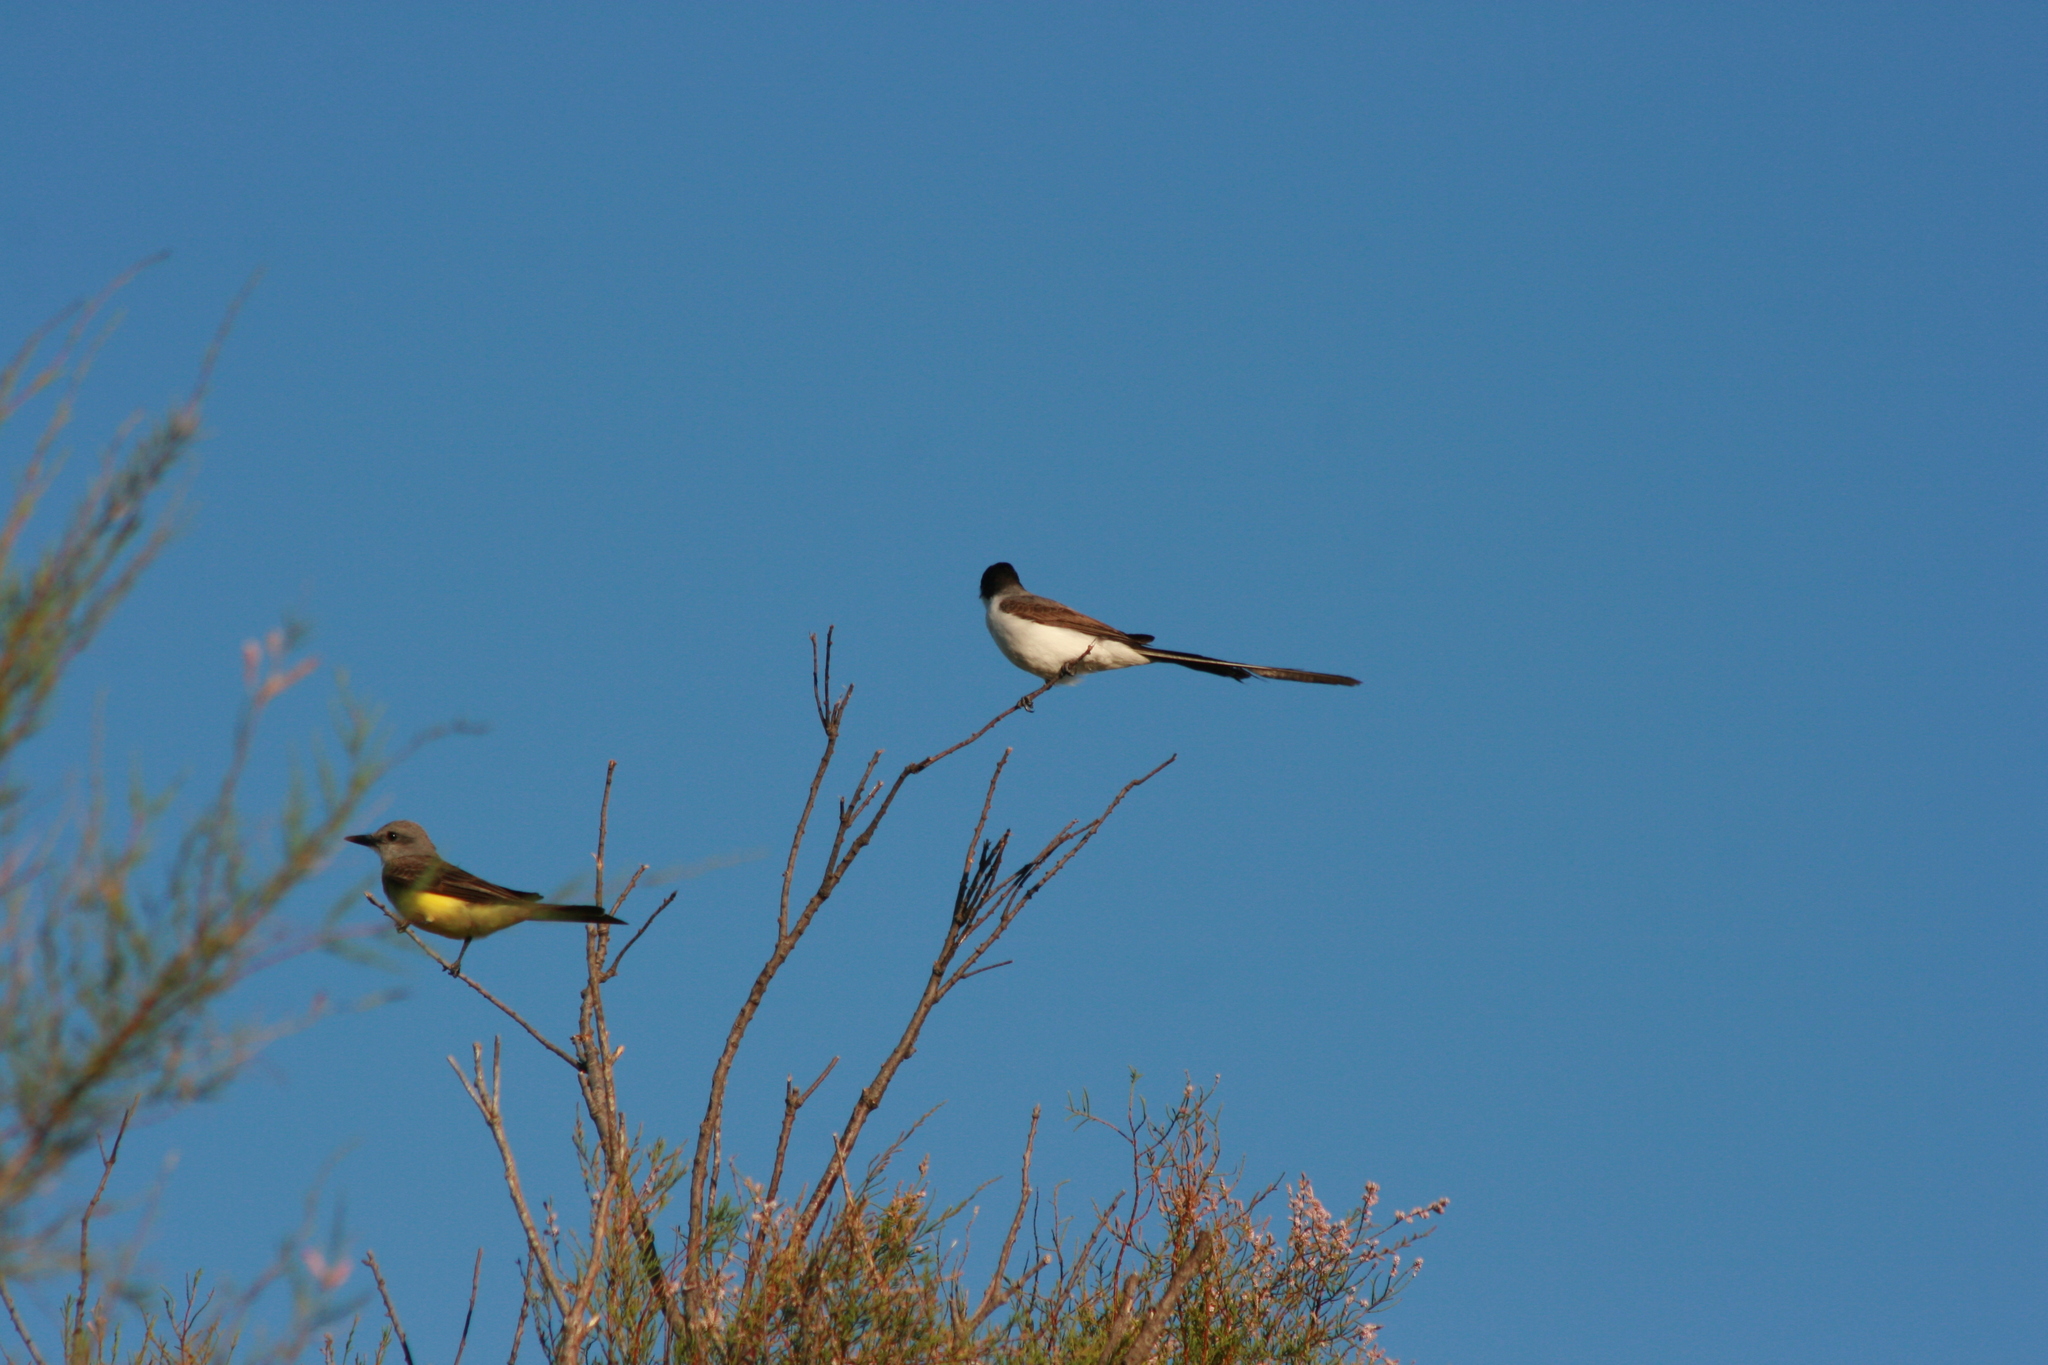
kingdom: Animalia
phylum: Chordata
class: Aves
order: Passeriformes
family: Tyrannidae
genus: Tyrannus
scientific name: Tyrannus savana
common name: Fork-tailed flycatcher
